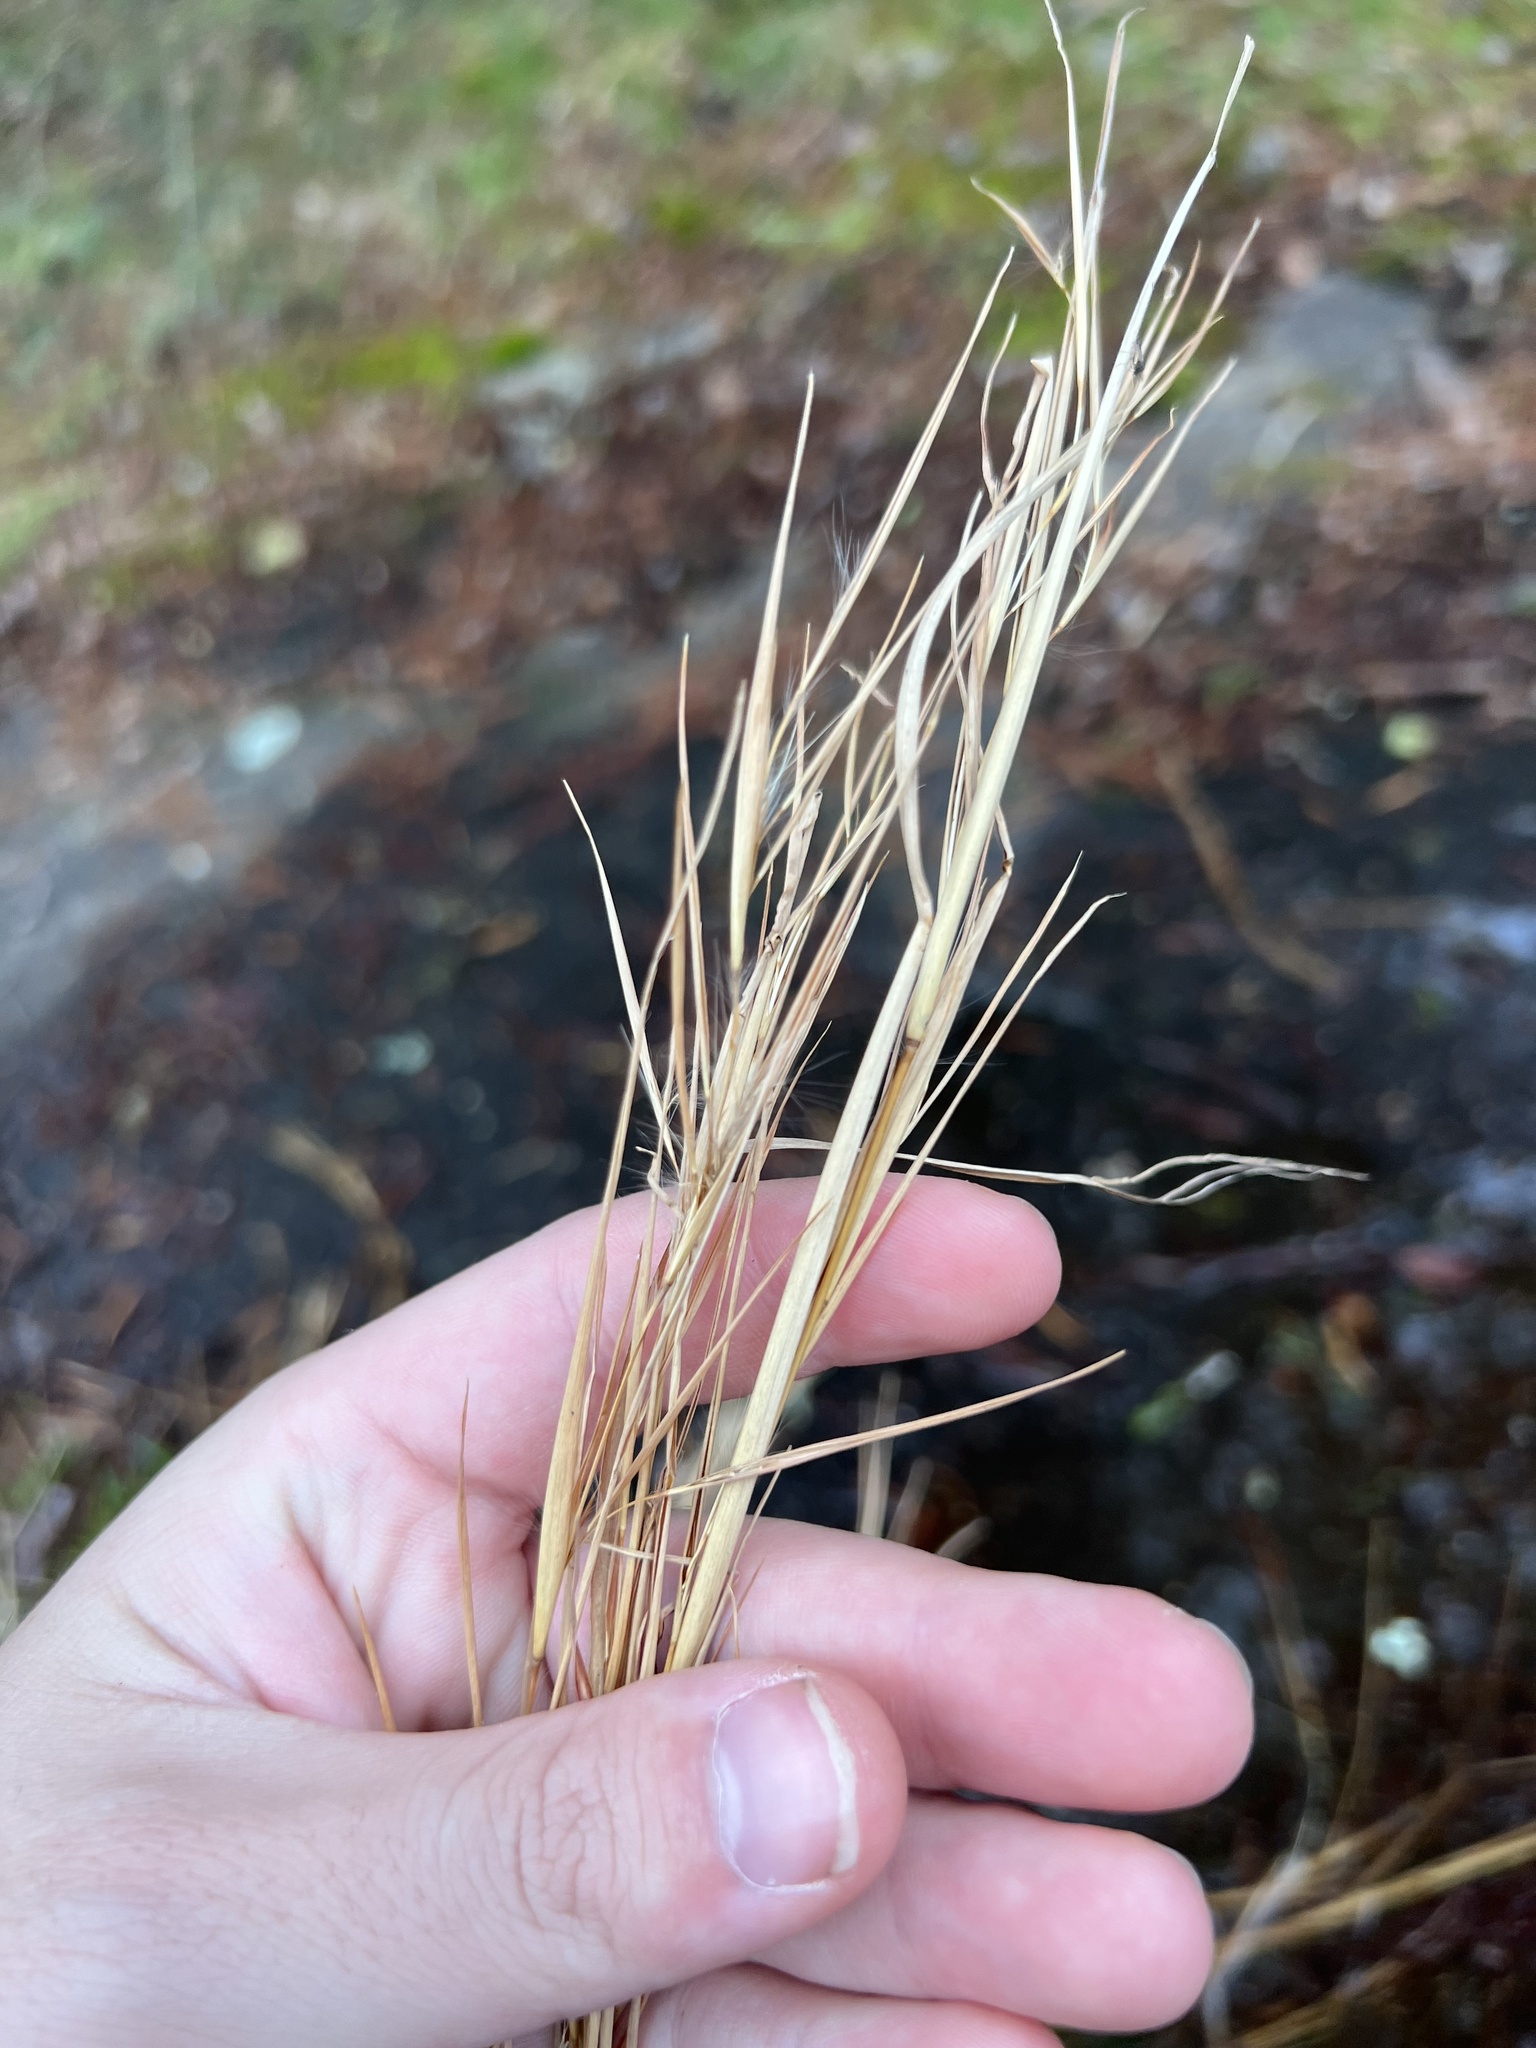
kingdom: Plantae
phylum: Tracheophyta
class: Liliopsida
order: Poales
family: Poaceae
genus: Andropogon
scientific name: Andropogon virginicus
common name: Broomsedge bluestem
